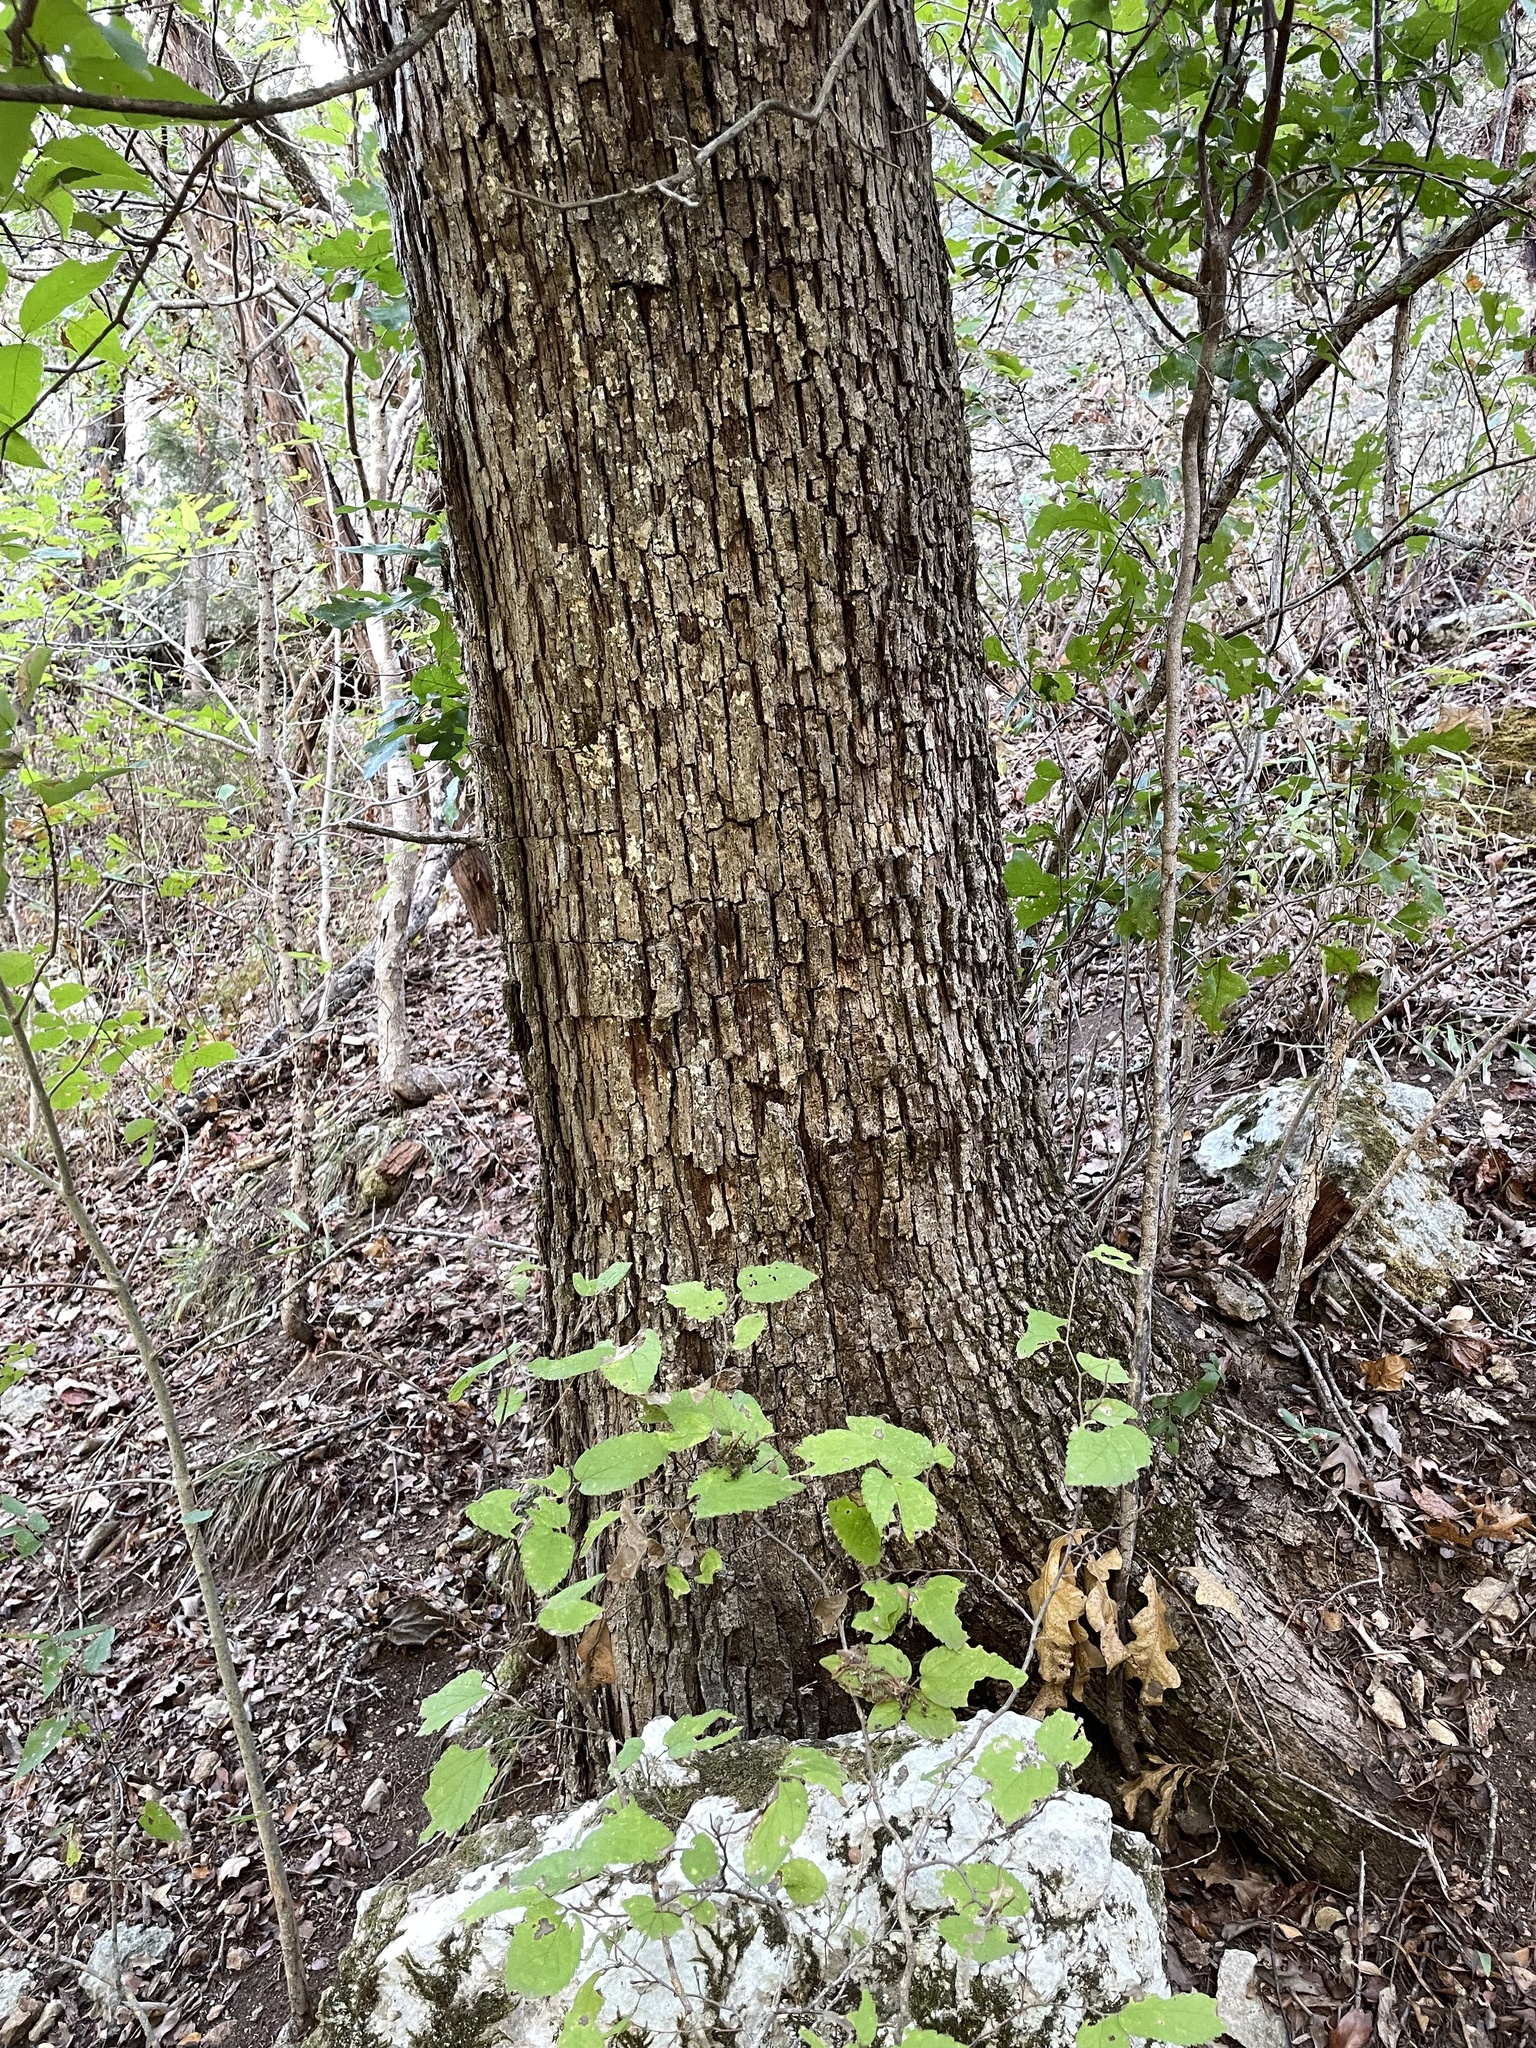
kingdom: Plantae
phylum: Tracheophyta
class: Magnoliopsida
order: Fagales
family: Fagaceae
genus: Quercus
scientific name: Quercus sinuata
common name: Durand oak
